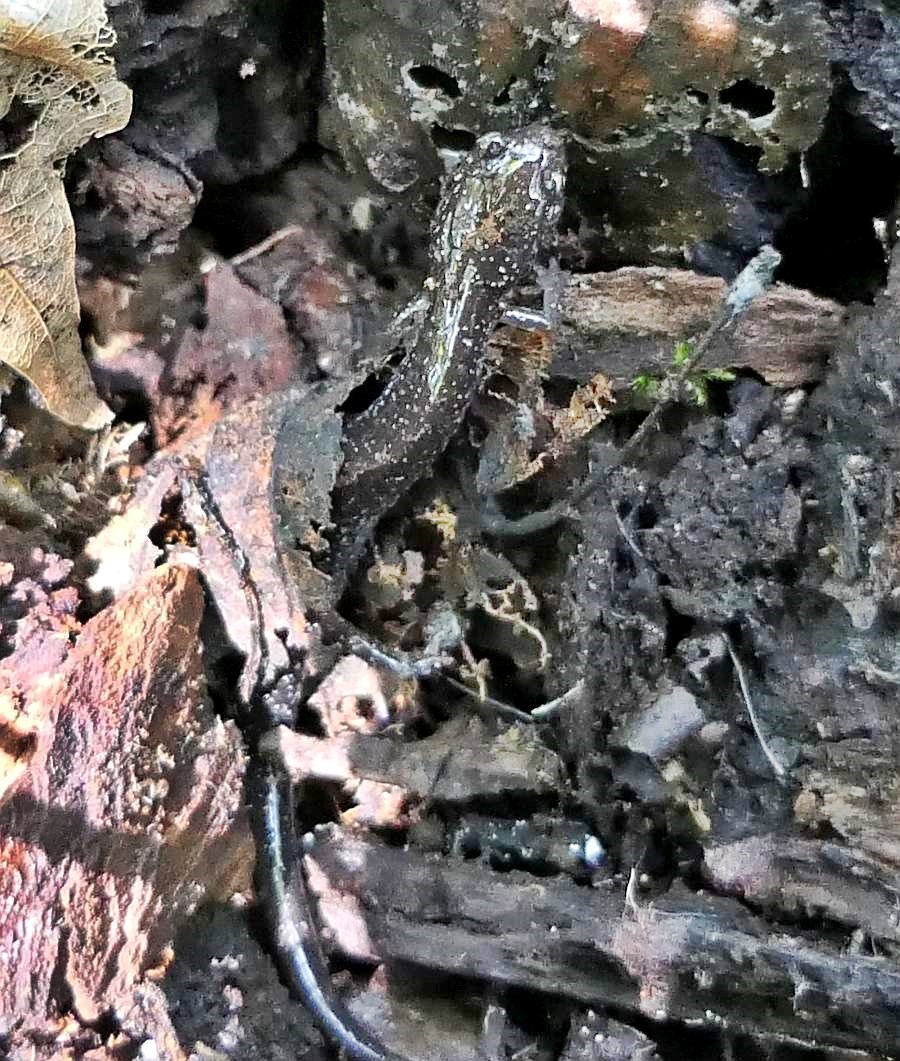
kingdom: Animalia
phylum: Chordata
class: Amphibia
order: Caudata
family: Plethodontidae
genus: Plethodon
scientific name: Plethodon cinereus
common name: Redback salamander
